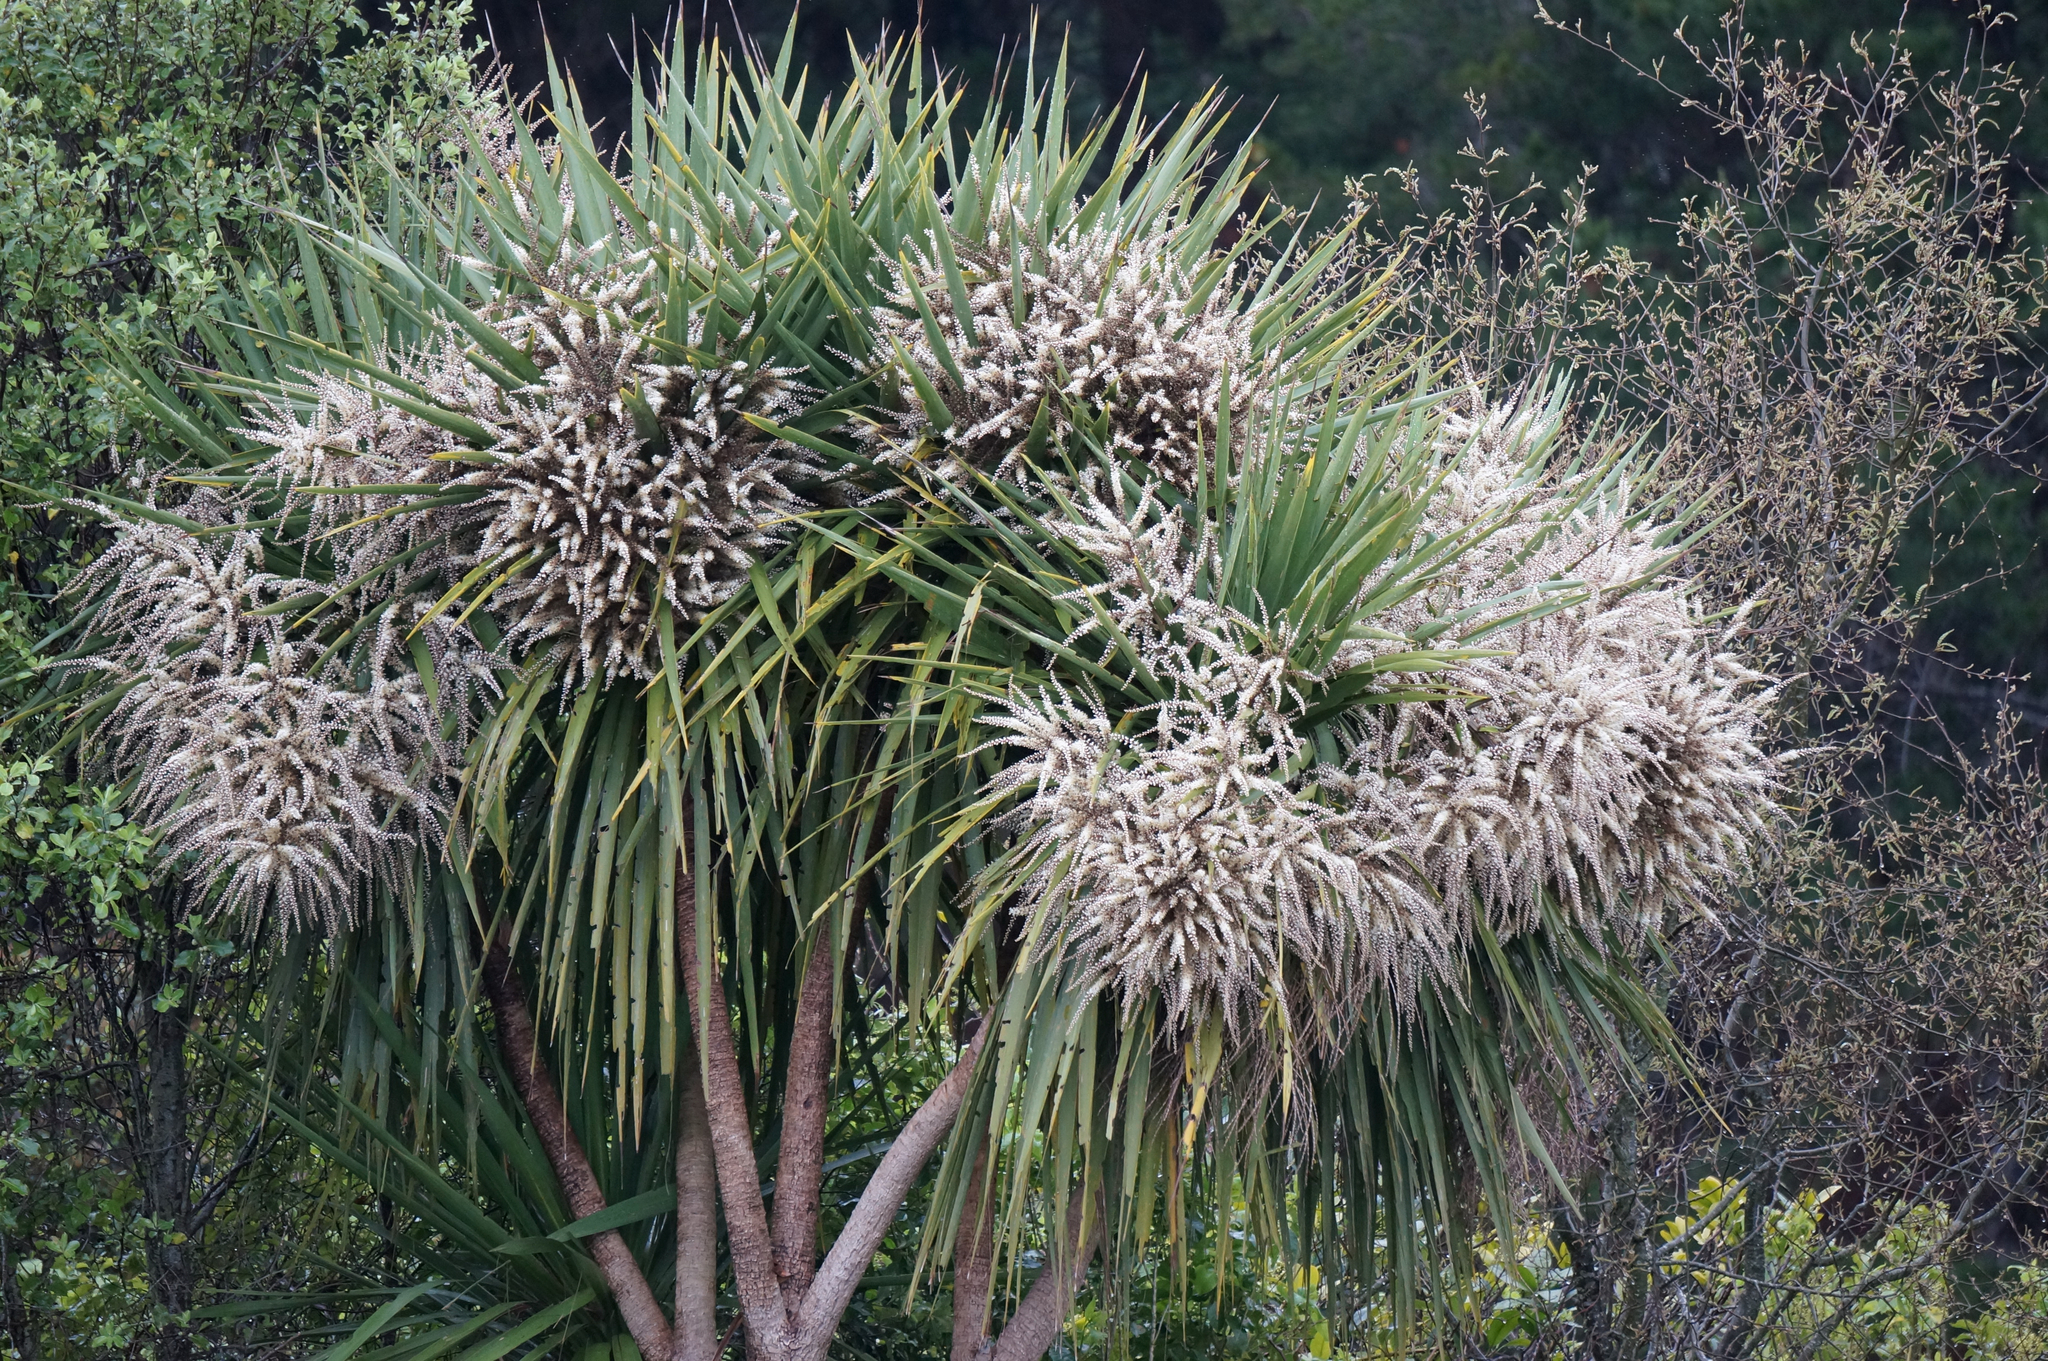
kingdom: Plantae
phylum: Tracheophyta
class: Liliopsida
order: Asparagales
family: Asparagaceae
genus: Cordyline
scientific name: Cordyline australis
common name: Cabbage-palm
